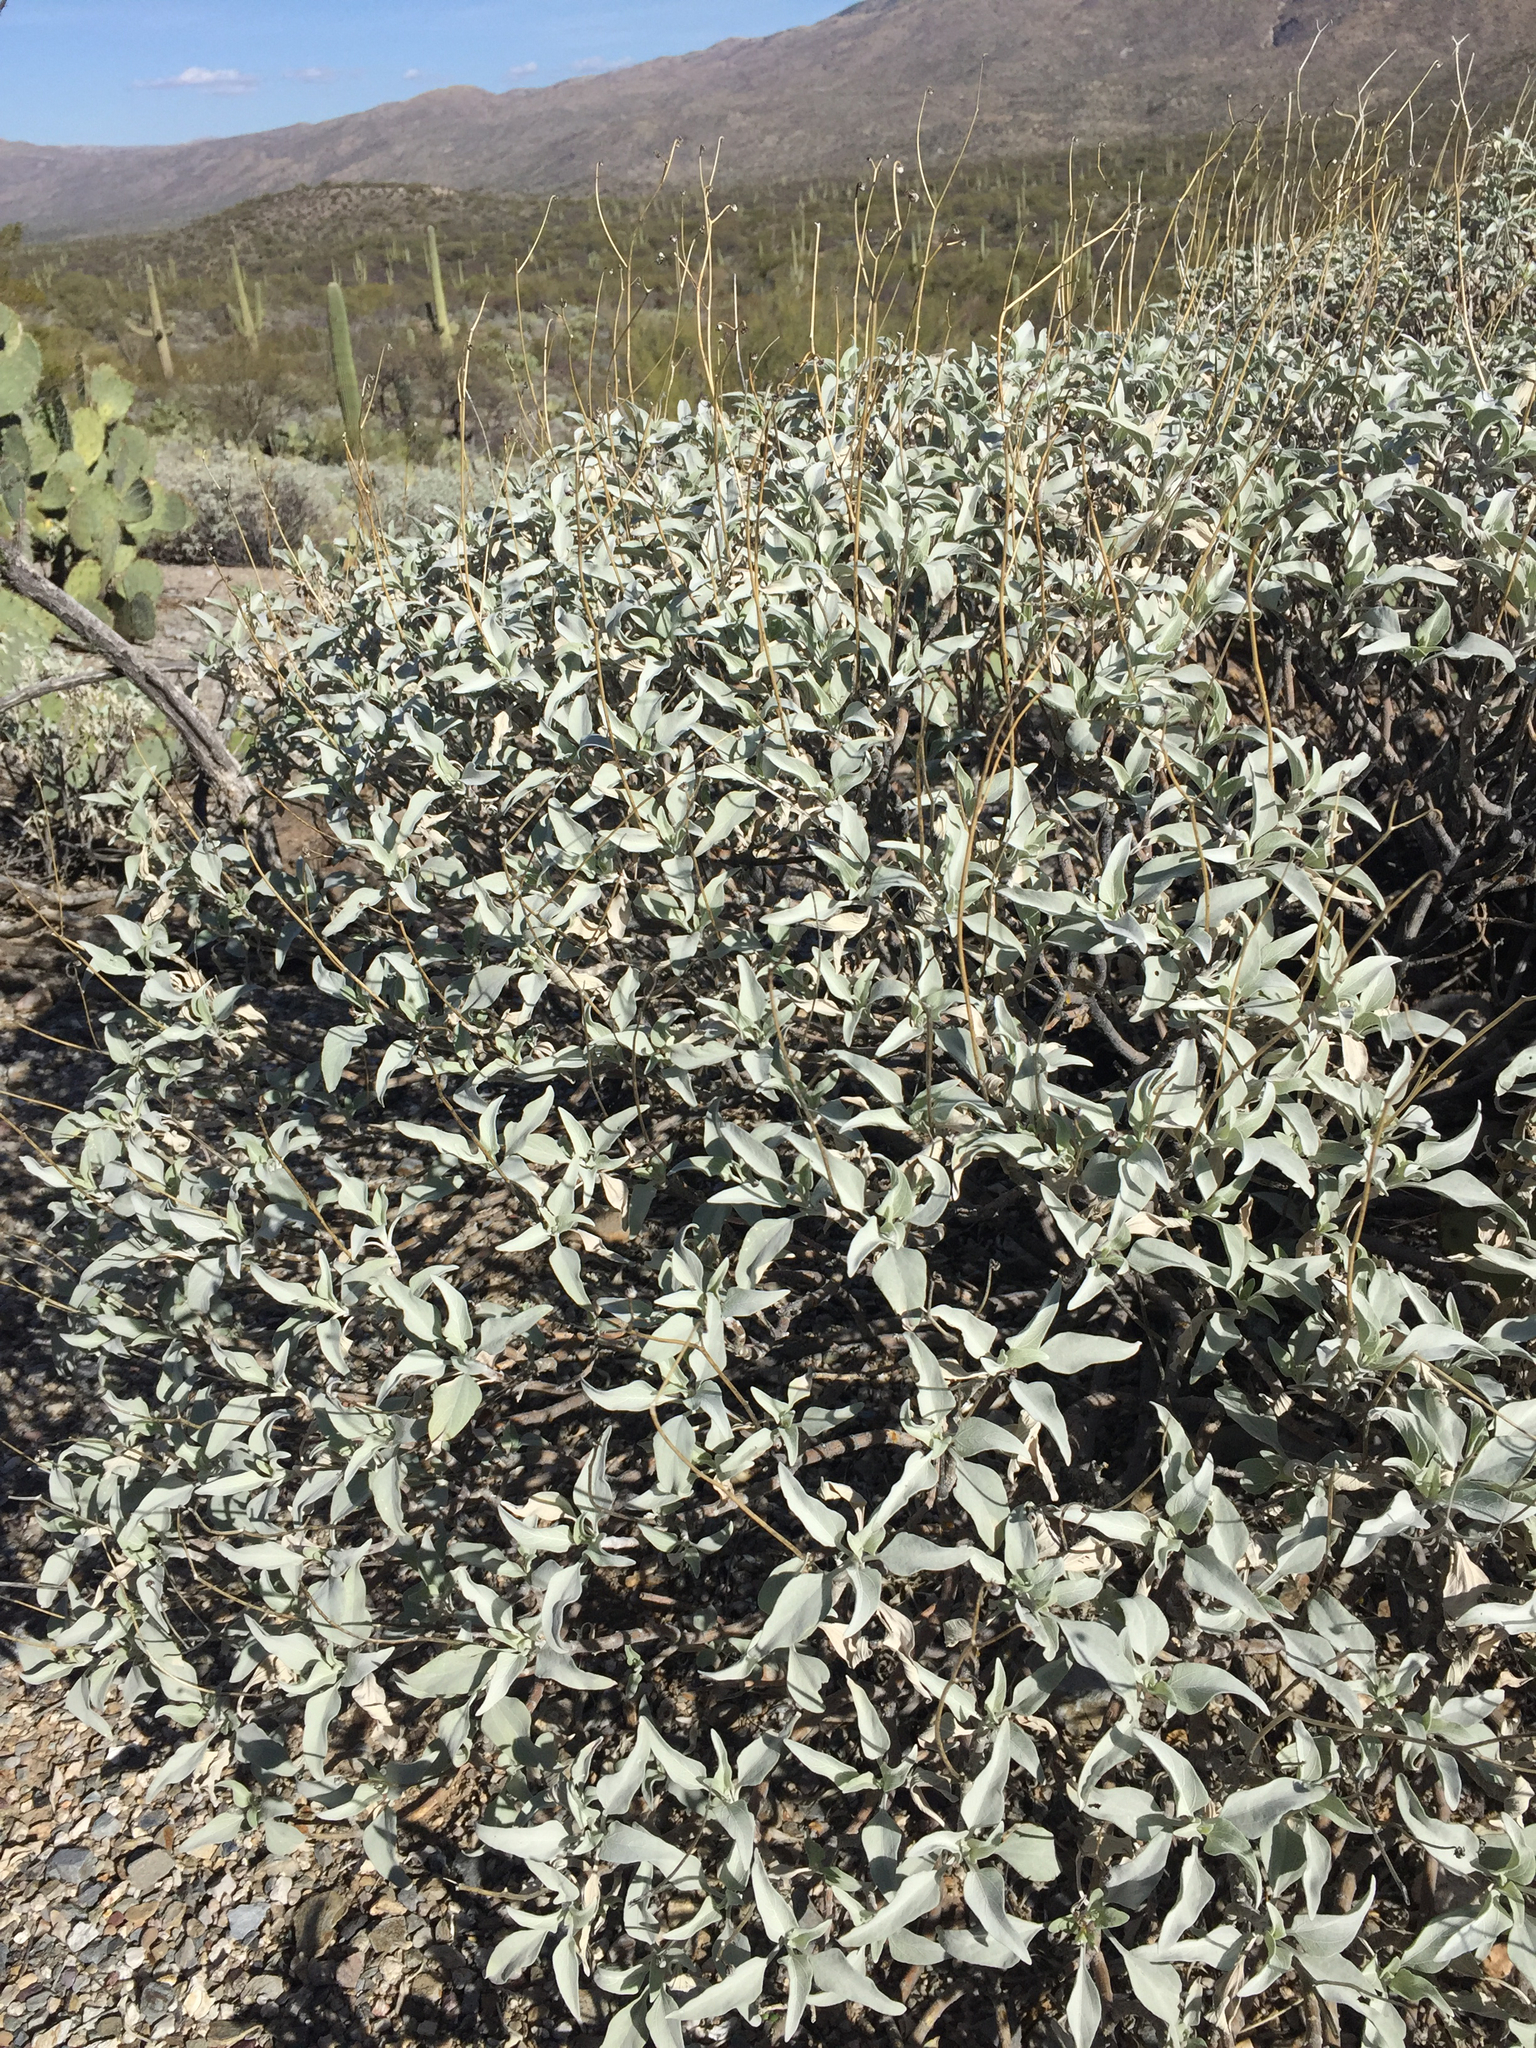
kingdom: Plantae
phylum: Tracheophyta
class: Magnoliopsida
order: Asterales
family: Asteraceae
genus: Encelia
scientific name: Encelia farinosa
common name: Brittlebush
